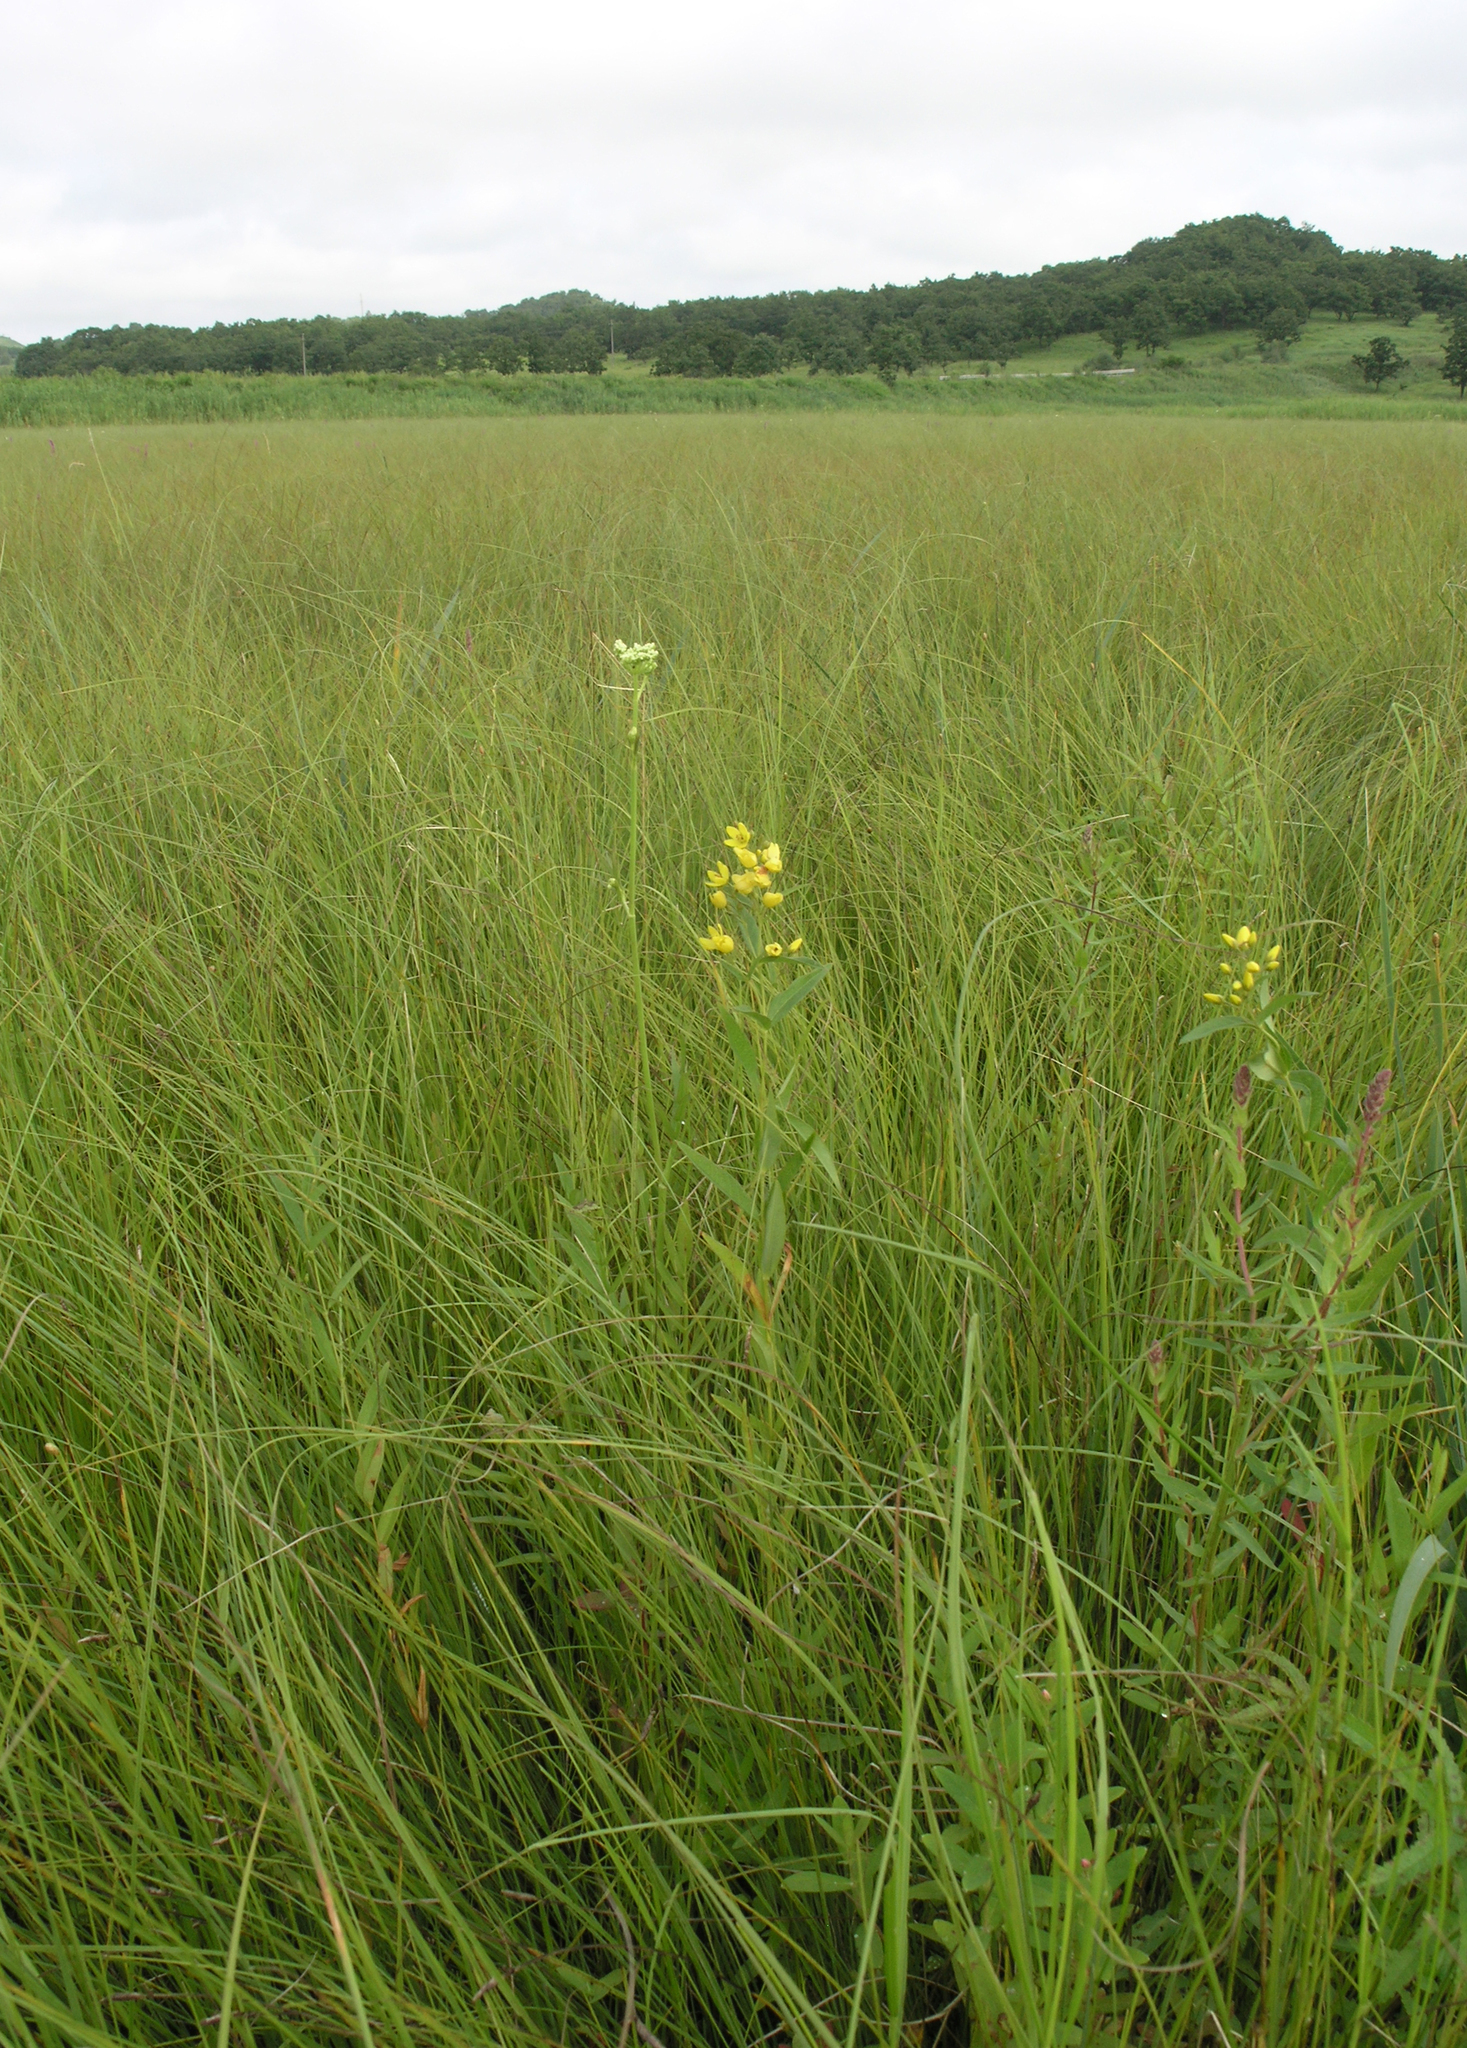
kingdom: Plantae
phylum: Tracheophyta
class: Magnoliopsida
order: Ericales
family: Primulaceae
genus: Lysimachia
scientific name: Lysimachia davurica
